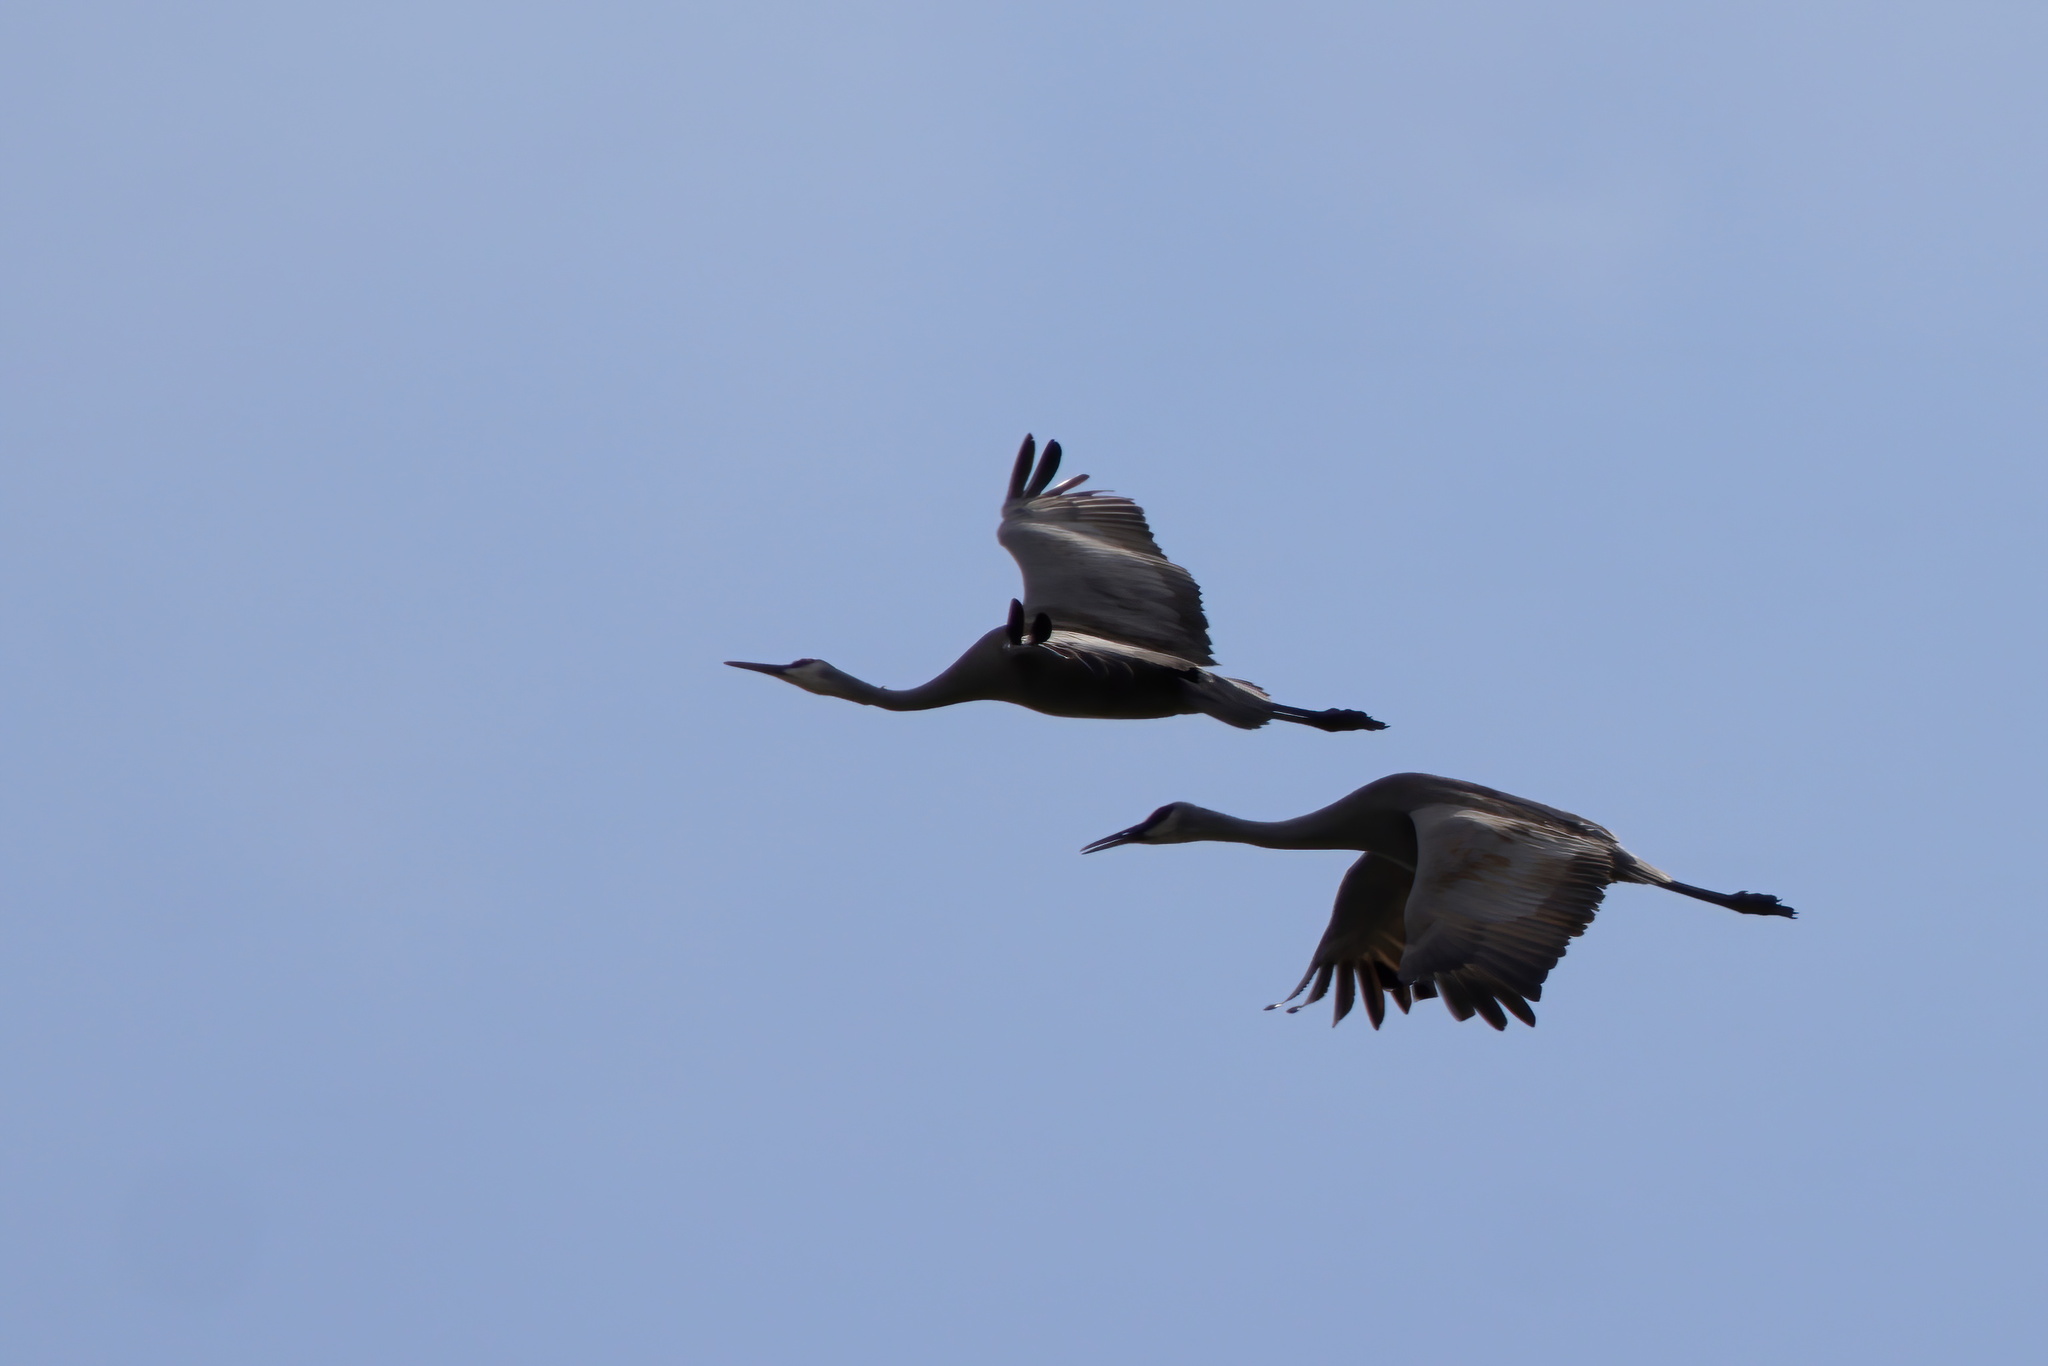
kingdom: Animalia
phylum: Chordata
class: Aves
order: Gruiformes
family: Gruidae
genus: Grus
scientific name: Grus canadensis
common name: Sandhill crane
